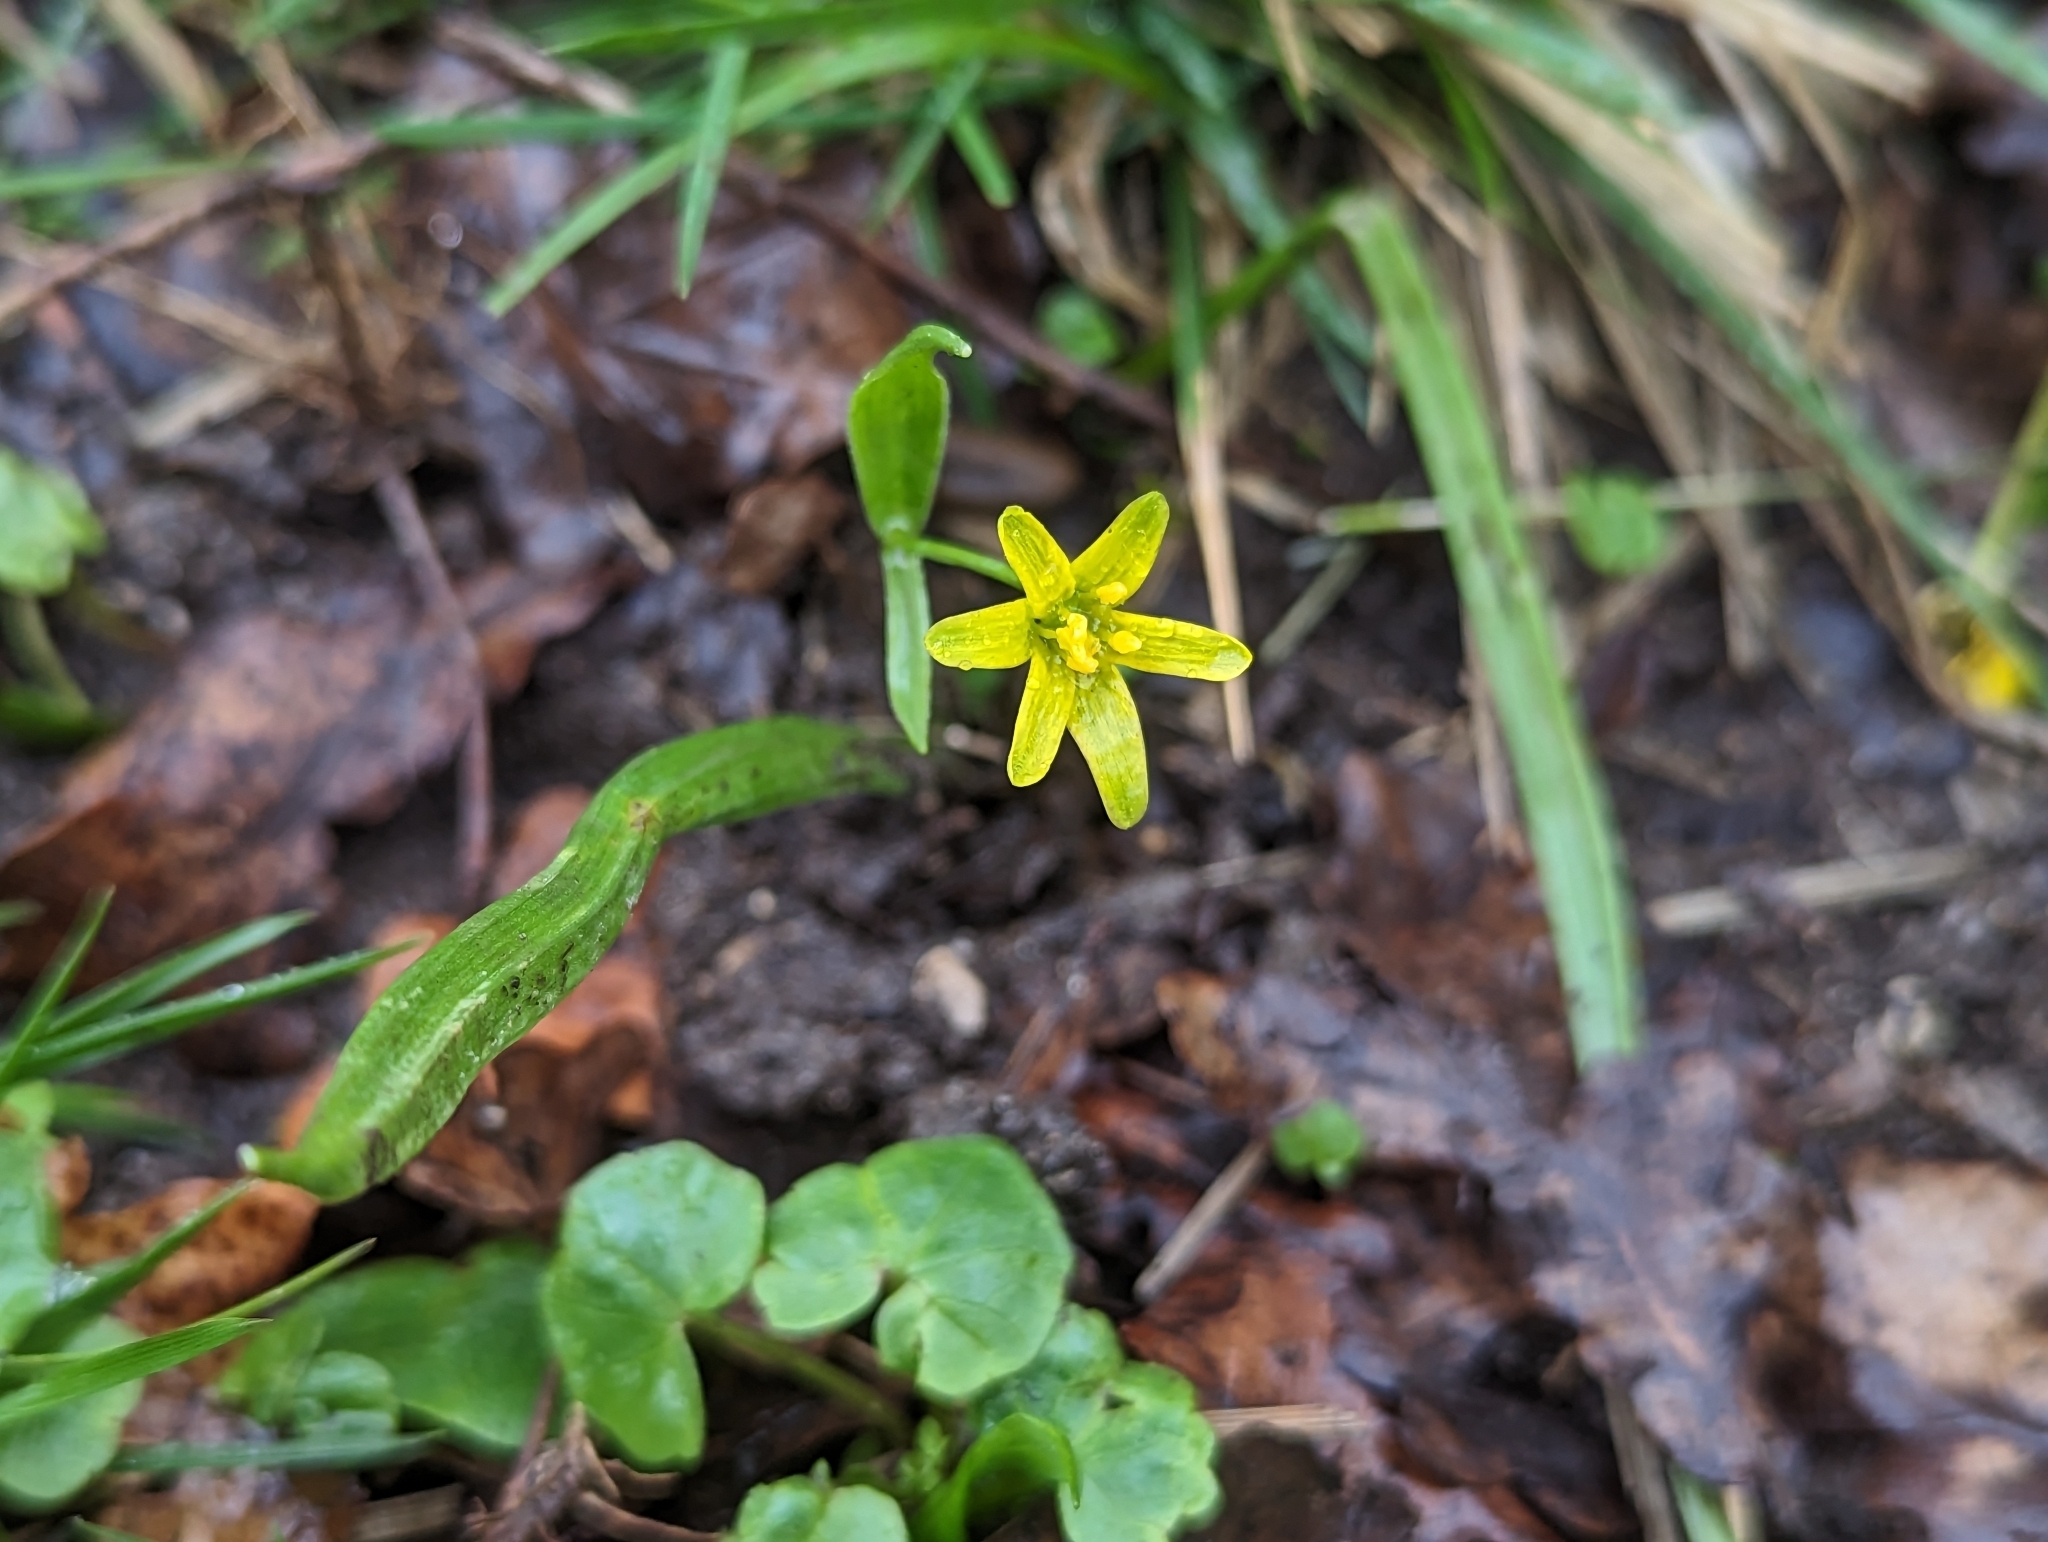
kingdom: Plantae
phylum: Tracheophyta
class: Liliopsida
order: Liliales
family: Liliaceae
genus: Gagea
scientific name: Gagea lutea
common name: Yellow star-of-bethlehem
